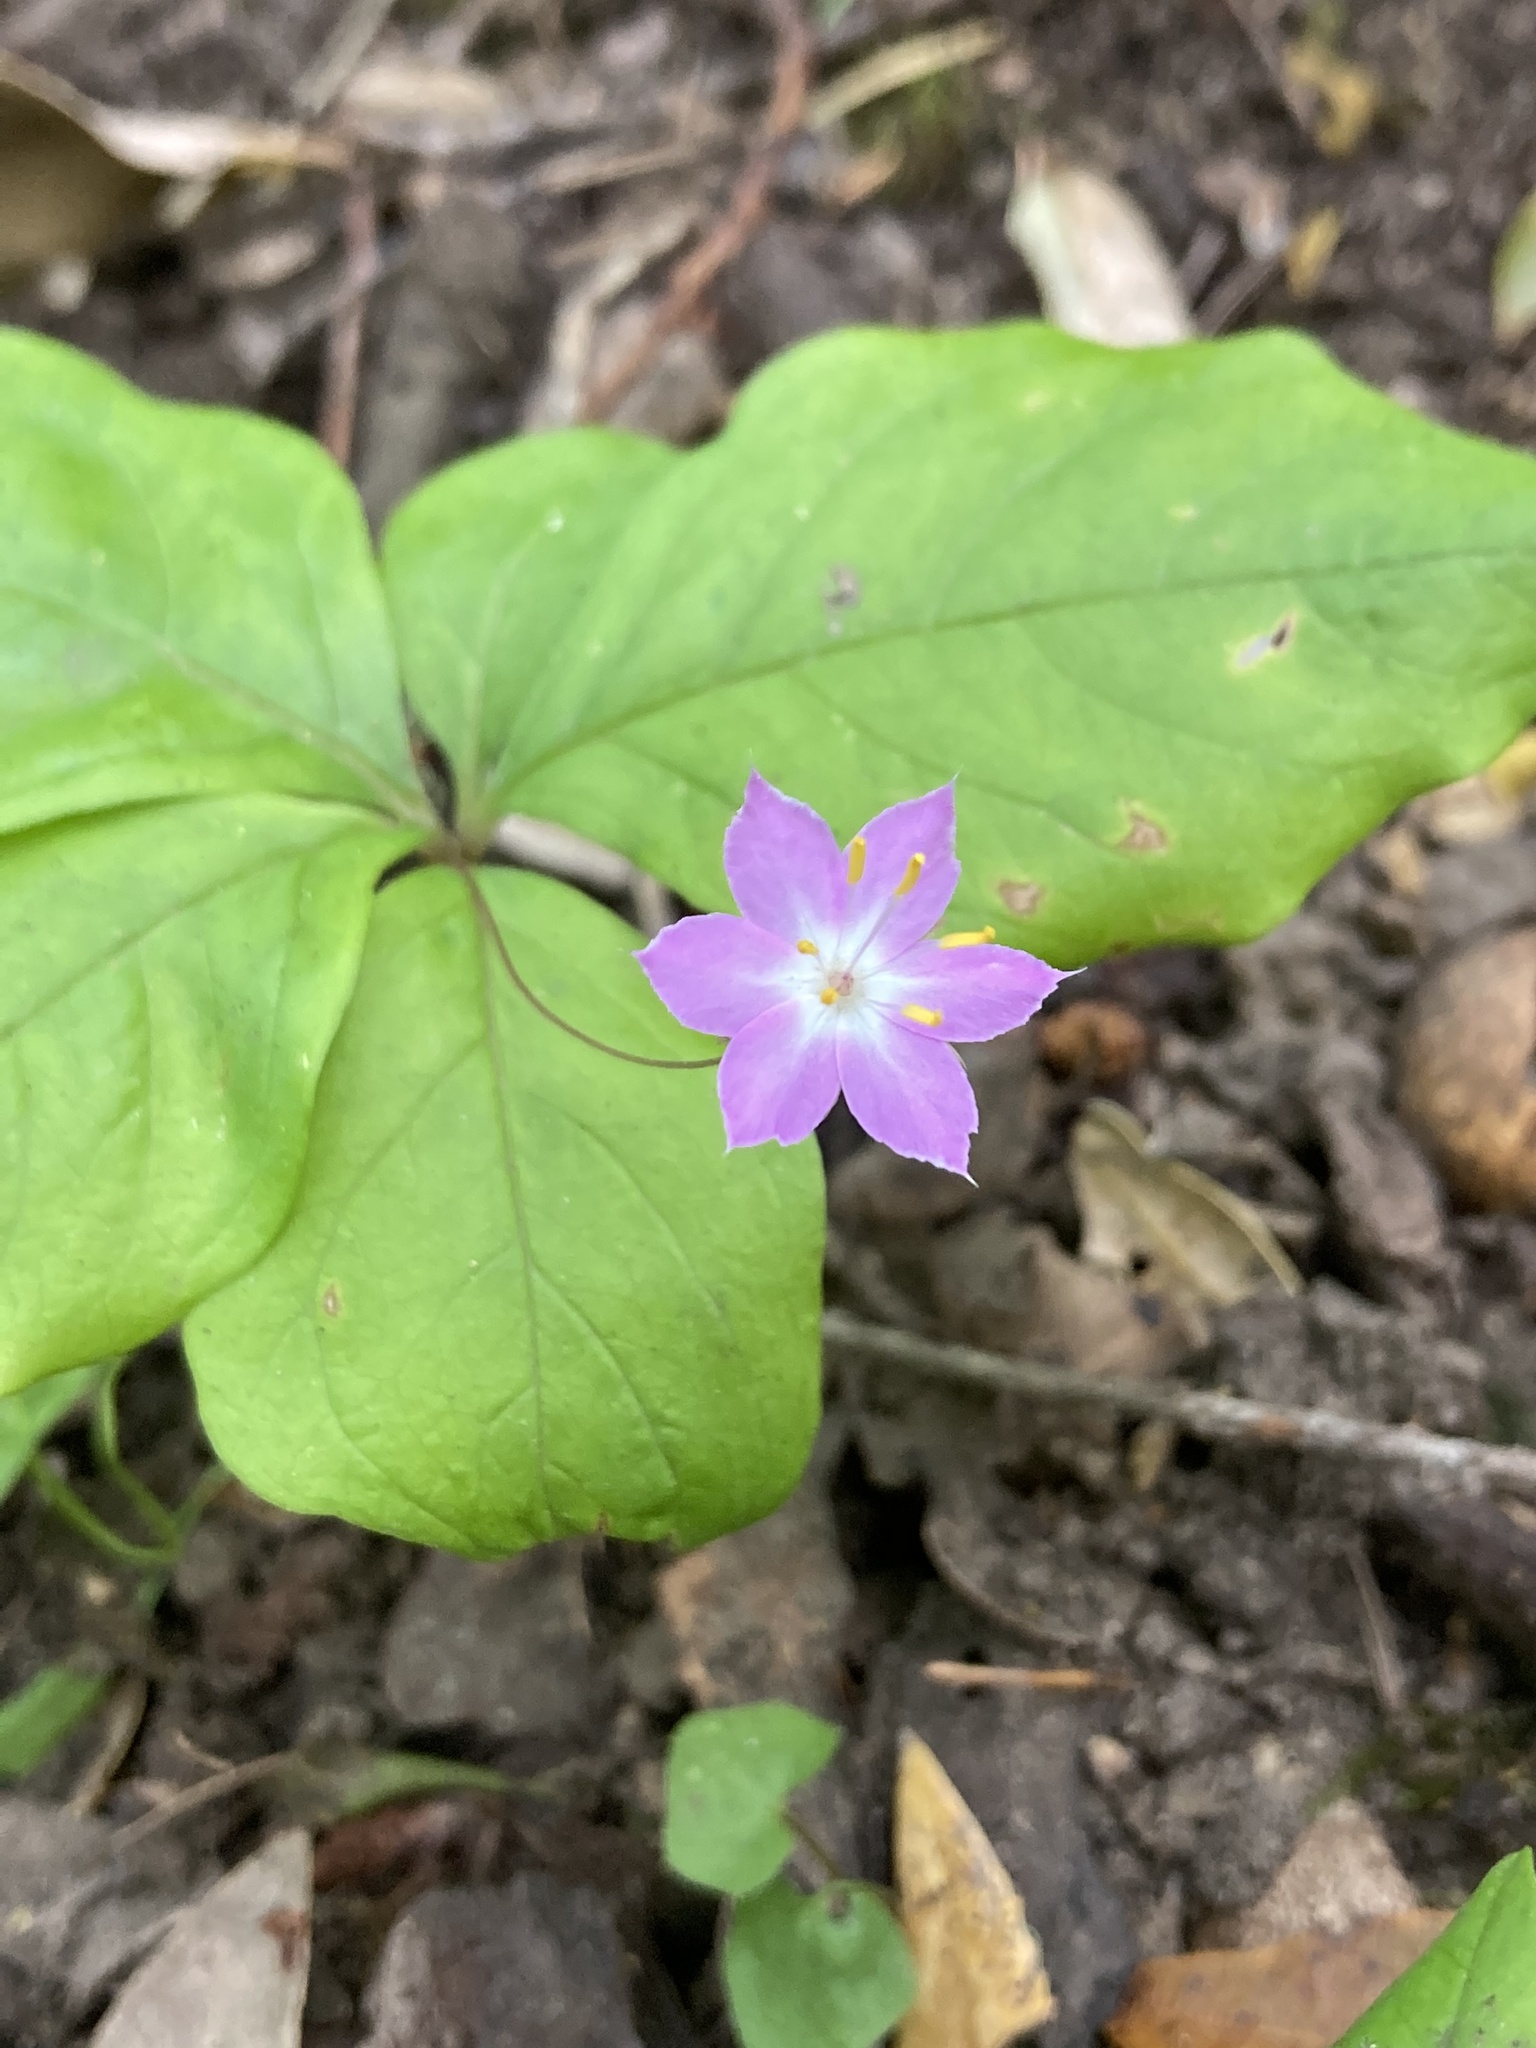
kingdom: Plantae
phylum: Tracheophyta
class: Magnoliopsida
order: Ericales
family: Primulaceae
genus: Lysimachia
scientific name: Lysimachia latifolia
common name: Pacific starflower
